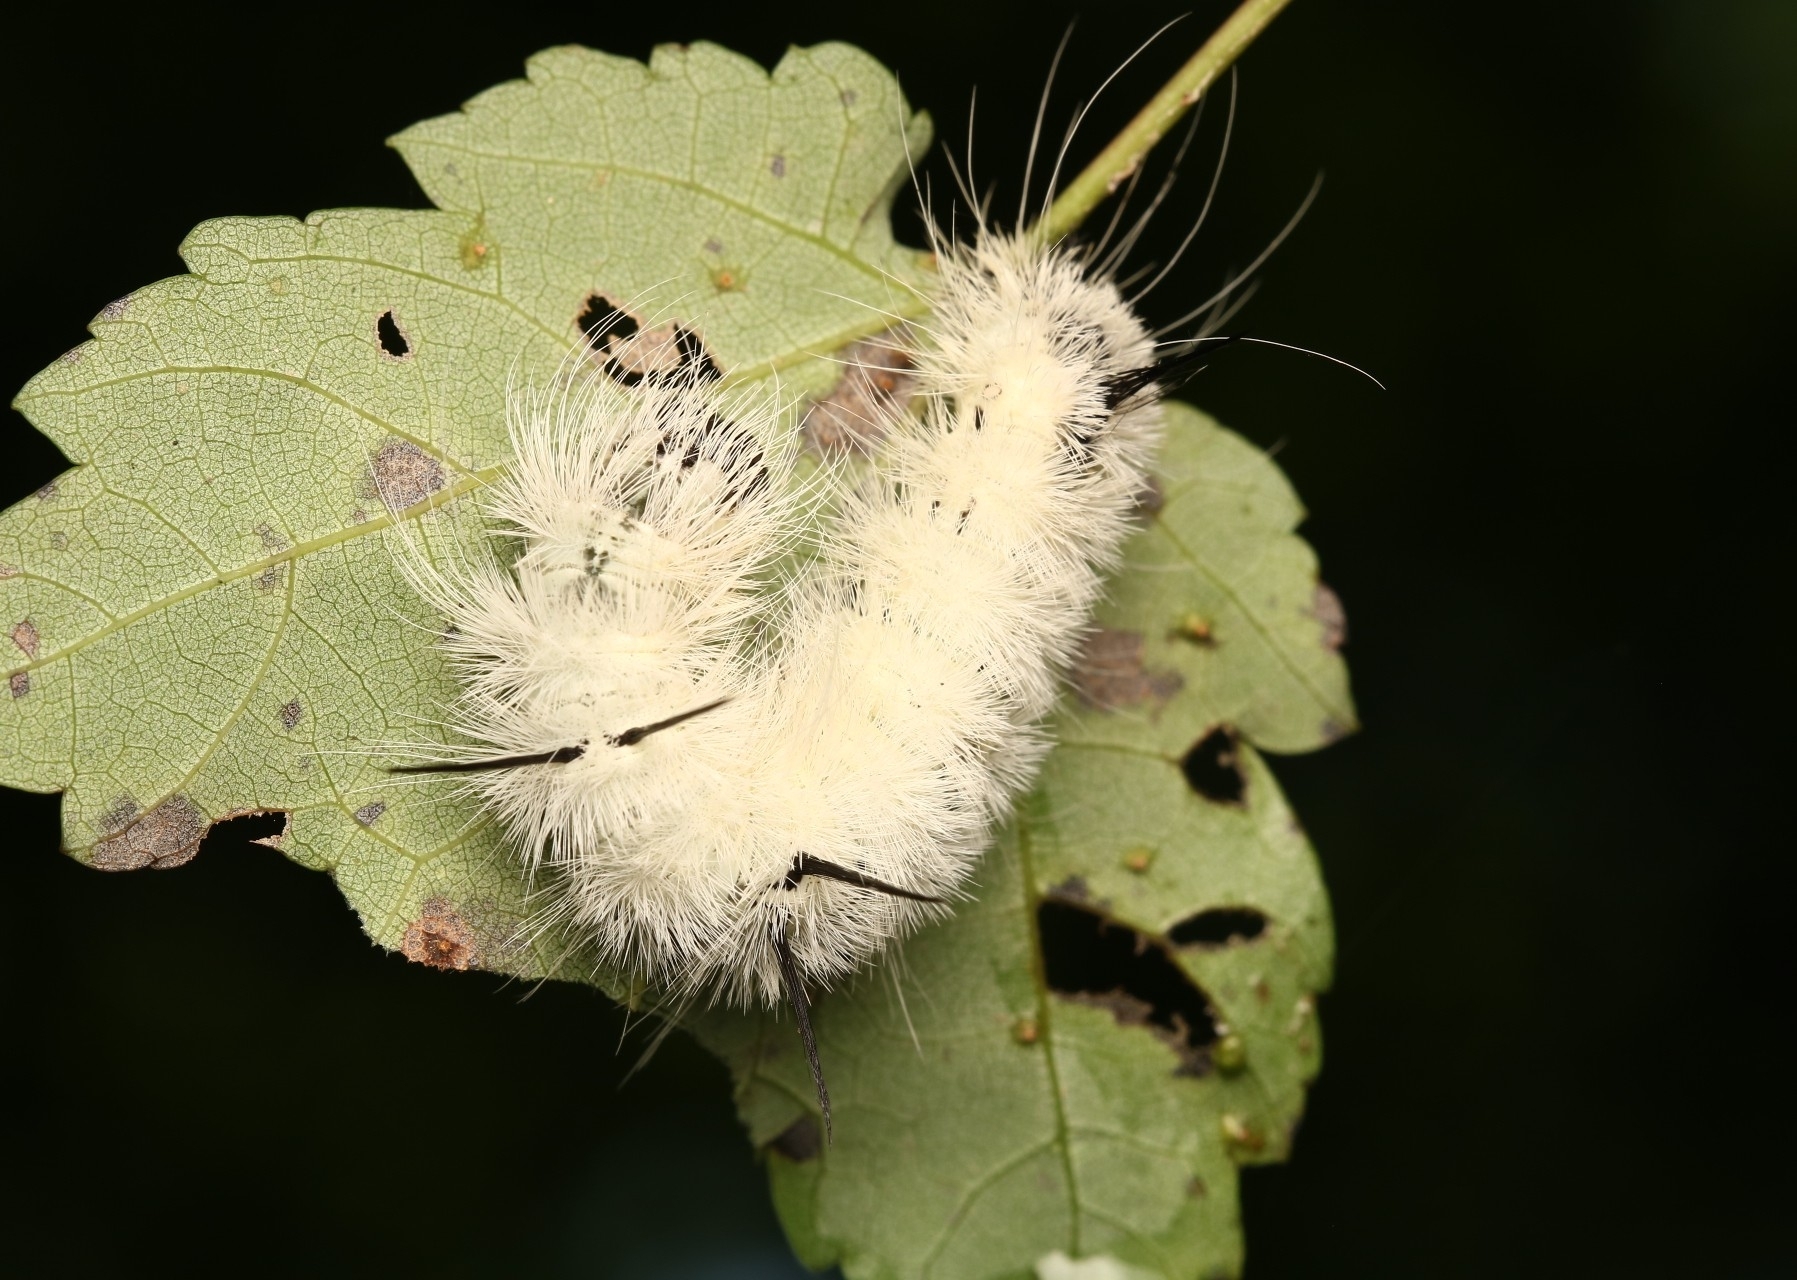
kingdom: Animalia
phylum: Arthropoda
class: Insecta
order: Lepidoptera
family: Noctuidae
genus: Acronicta
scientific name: Acronicta americana
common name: American dagger
